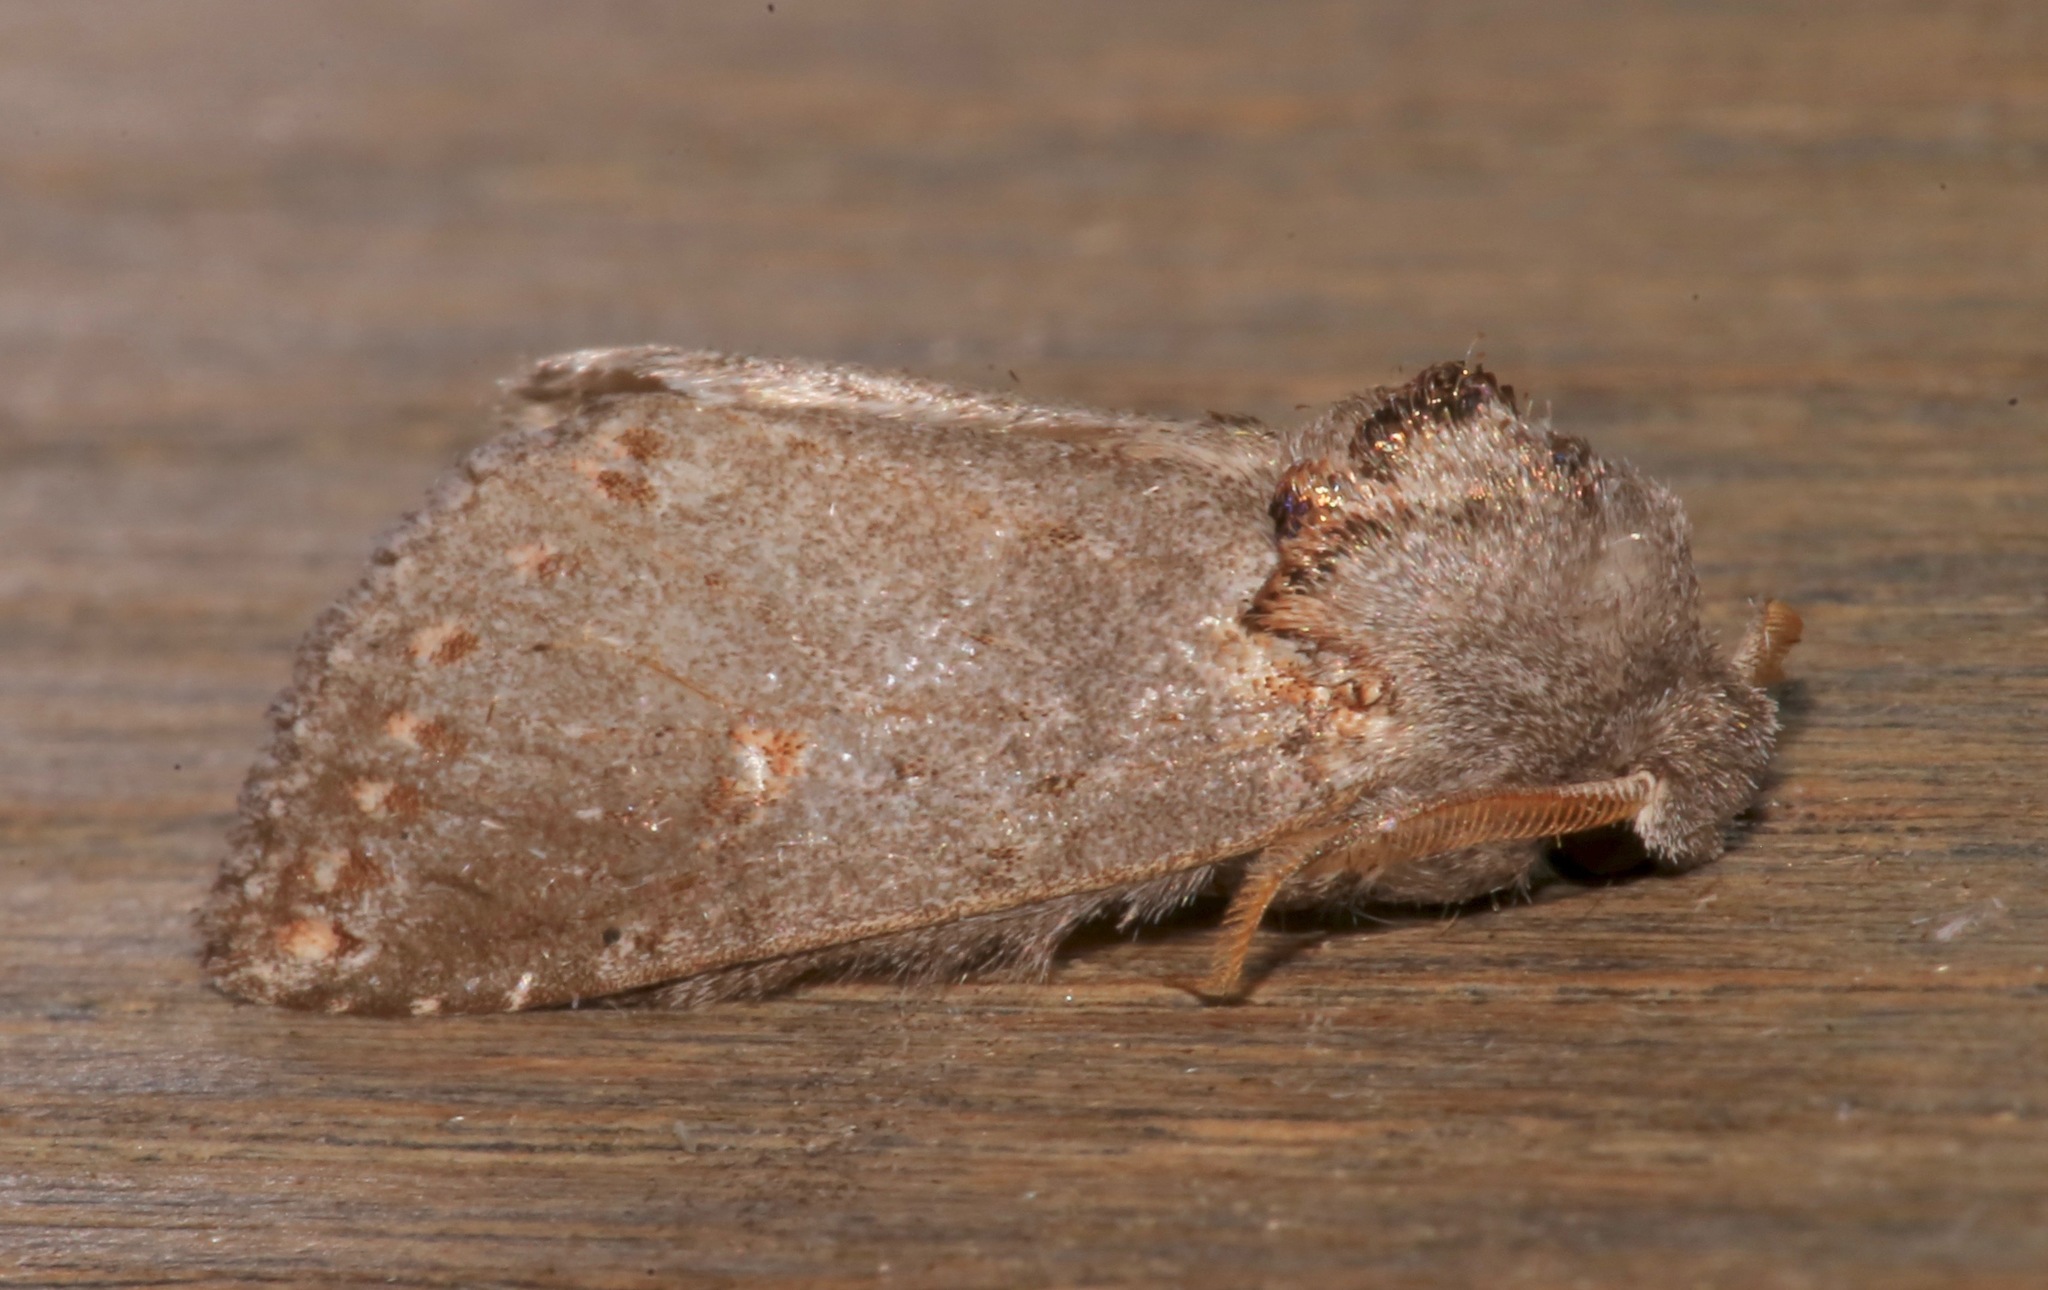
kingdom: Animalia
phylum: Arthropoda
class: Insecta
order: Lepidoptera
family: Notodontidae
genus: Theroa
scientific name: Theroa zethus
